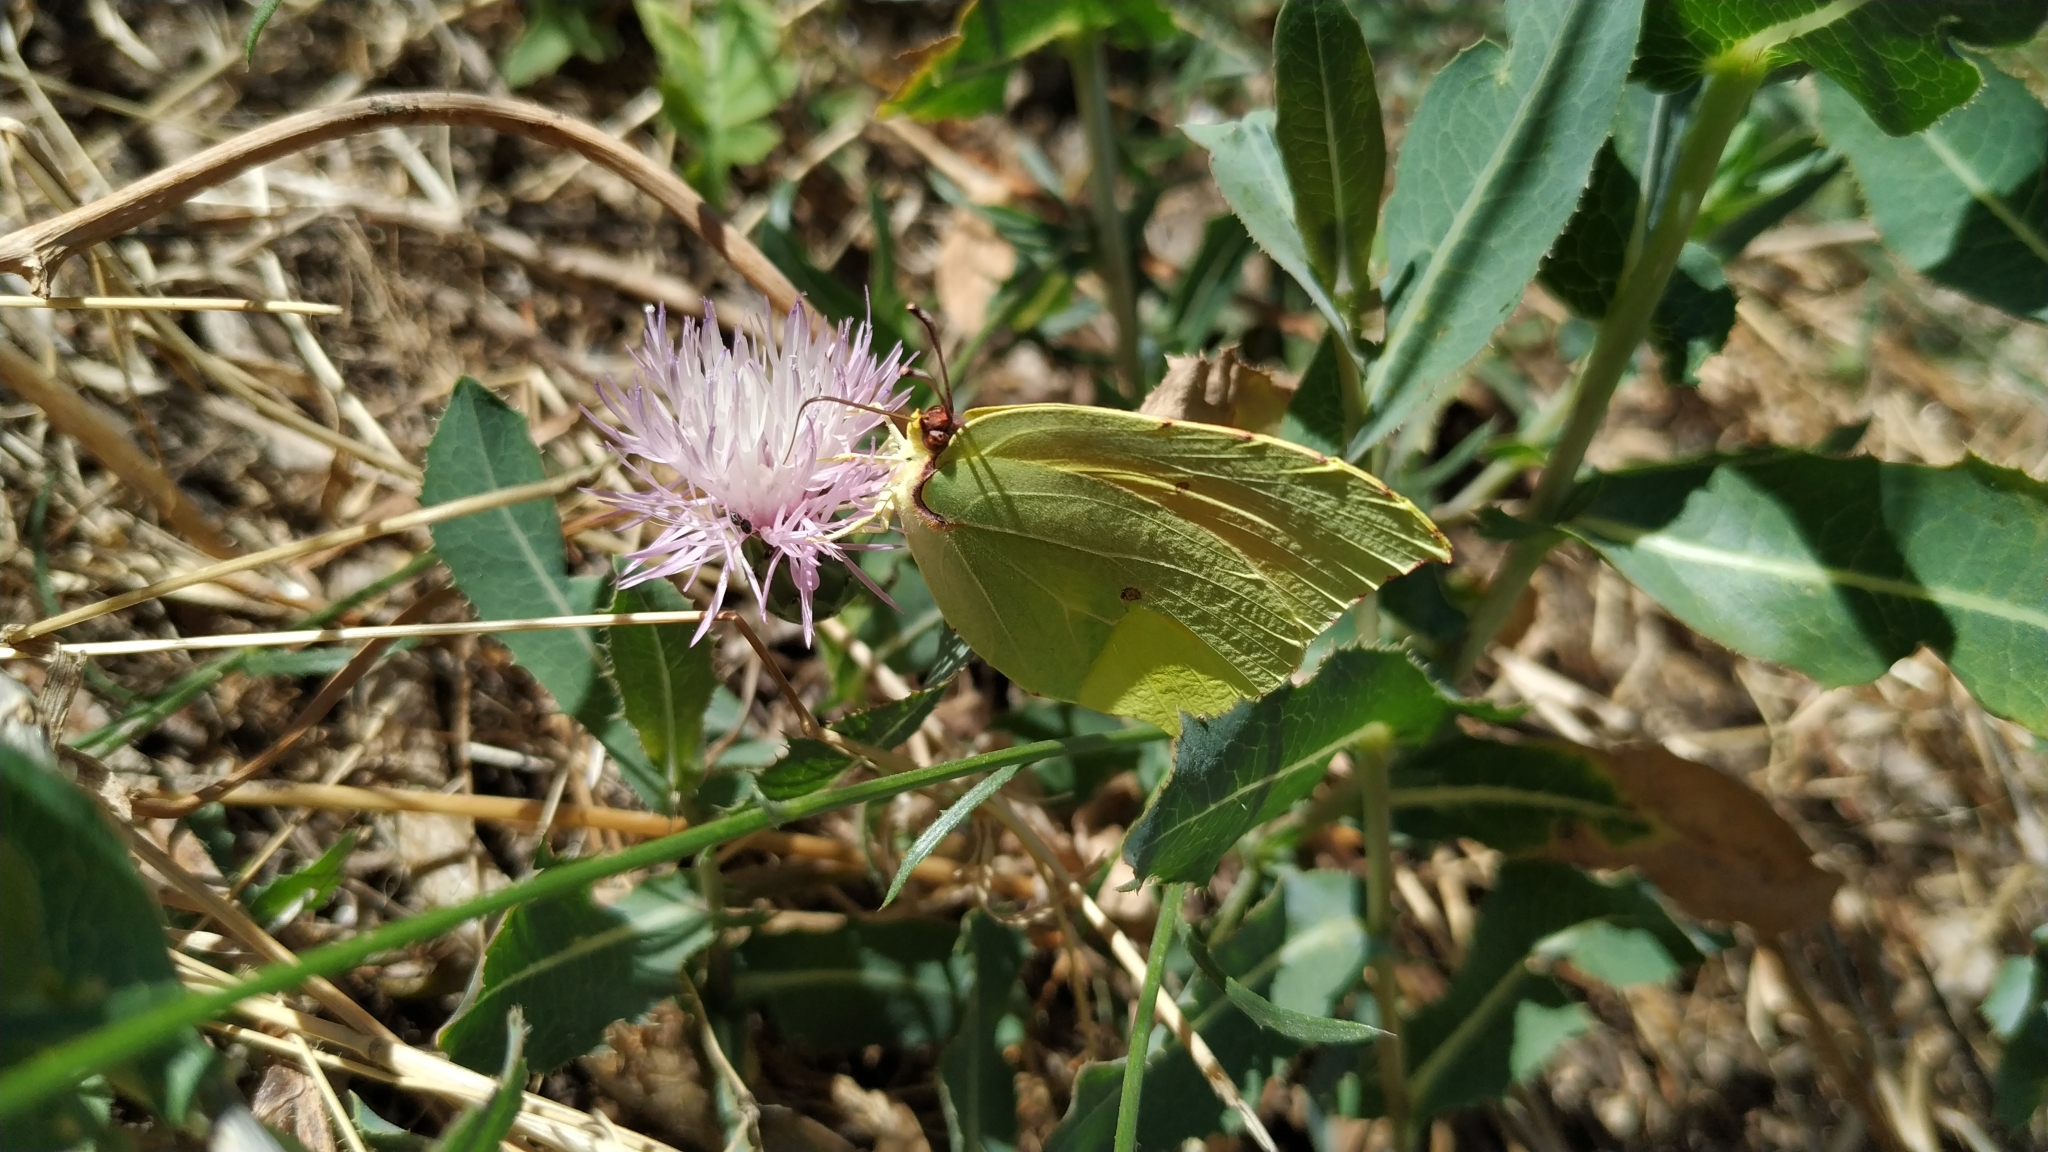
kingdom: Animalia
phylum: Arthropoda
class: Insecta
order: Lepidoptera
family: Pieridae
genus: Gonepteryx
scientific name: Gonepteryx cleopatra
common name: Cleopatra
